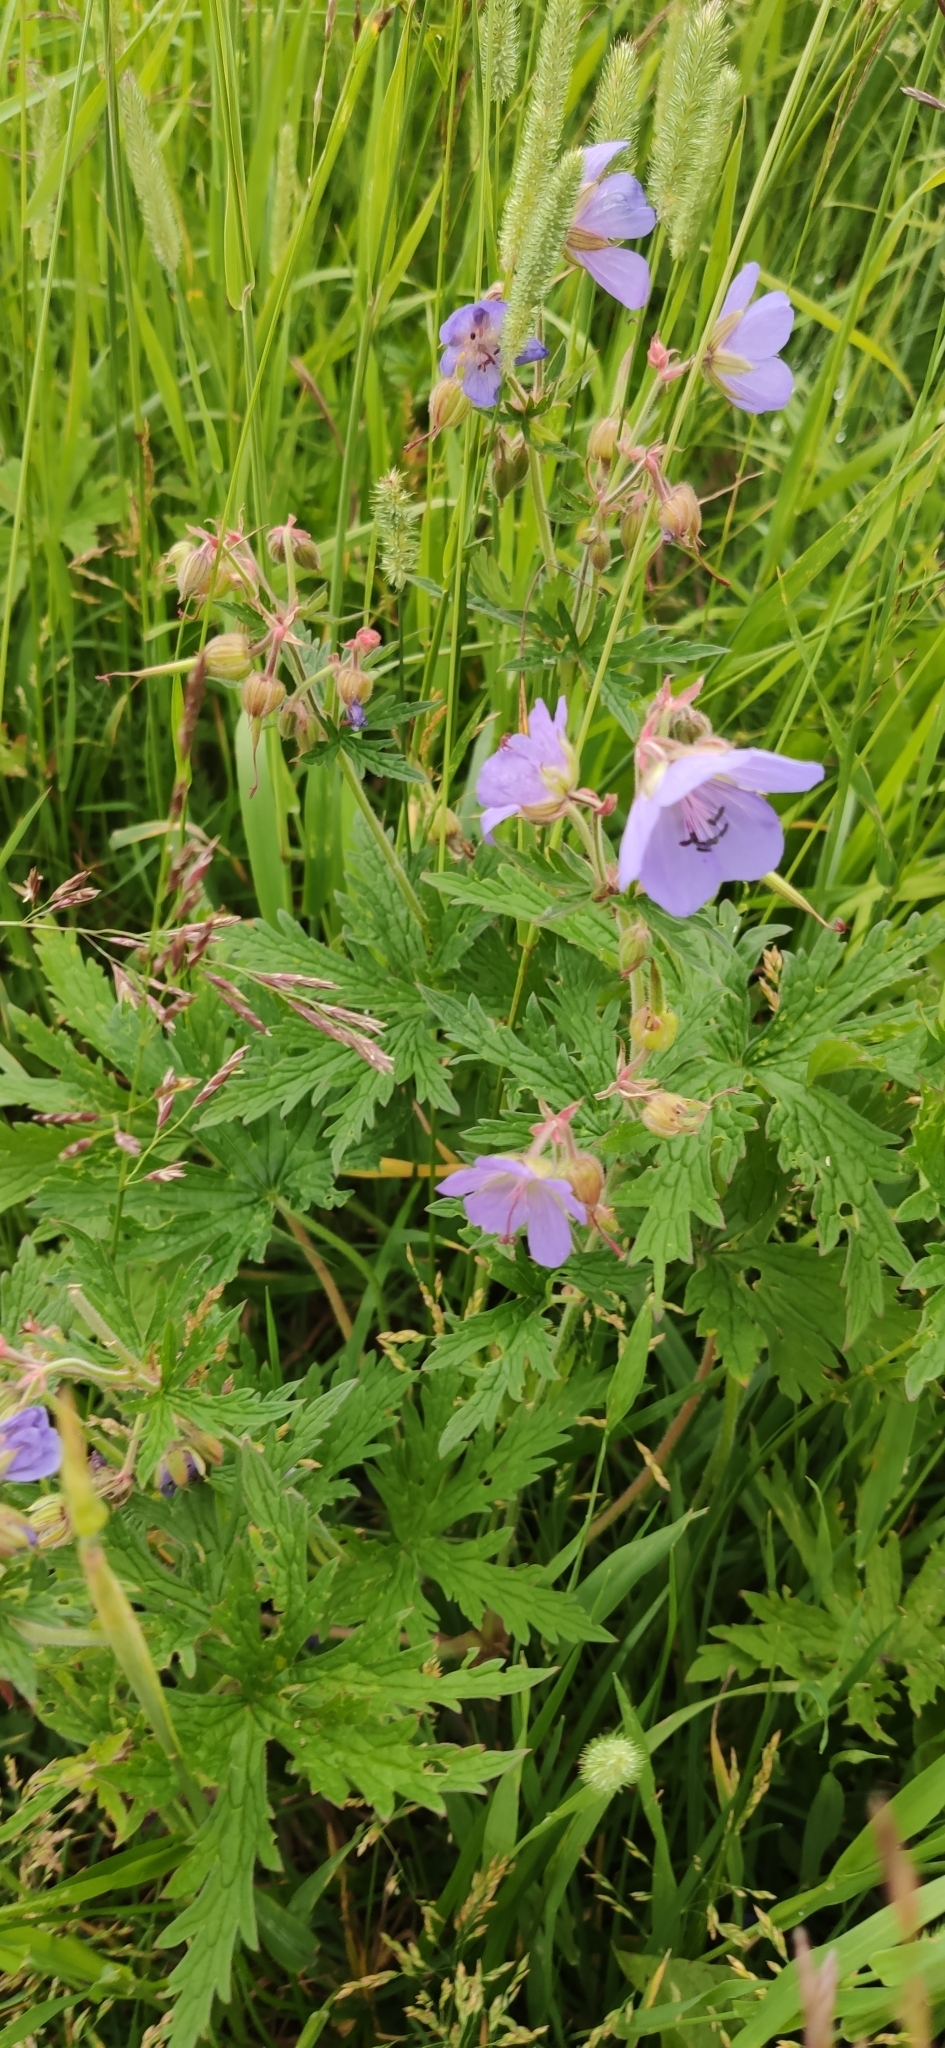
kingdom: Plantae
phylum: Tracheophyta
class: Magnoliopsida
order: Geraniales
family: Geraniaceae
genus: Geranium
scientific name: Geranium pratense
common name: Meadow crane's-bill
